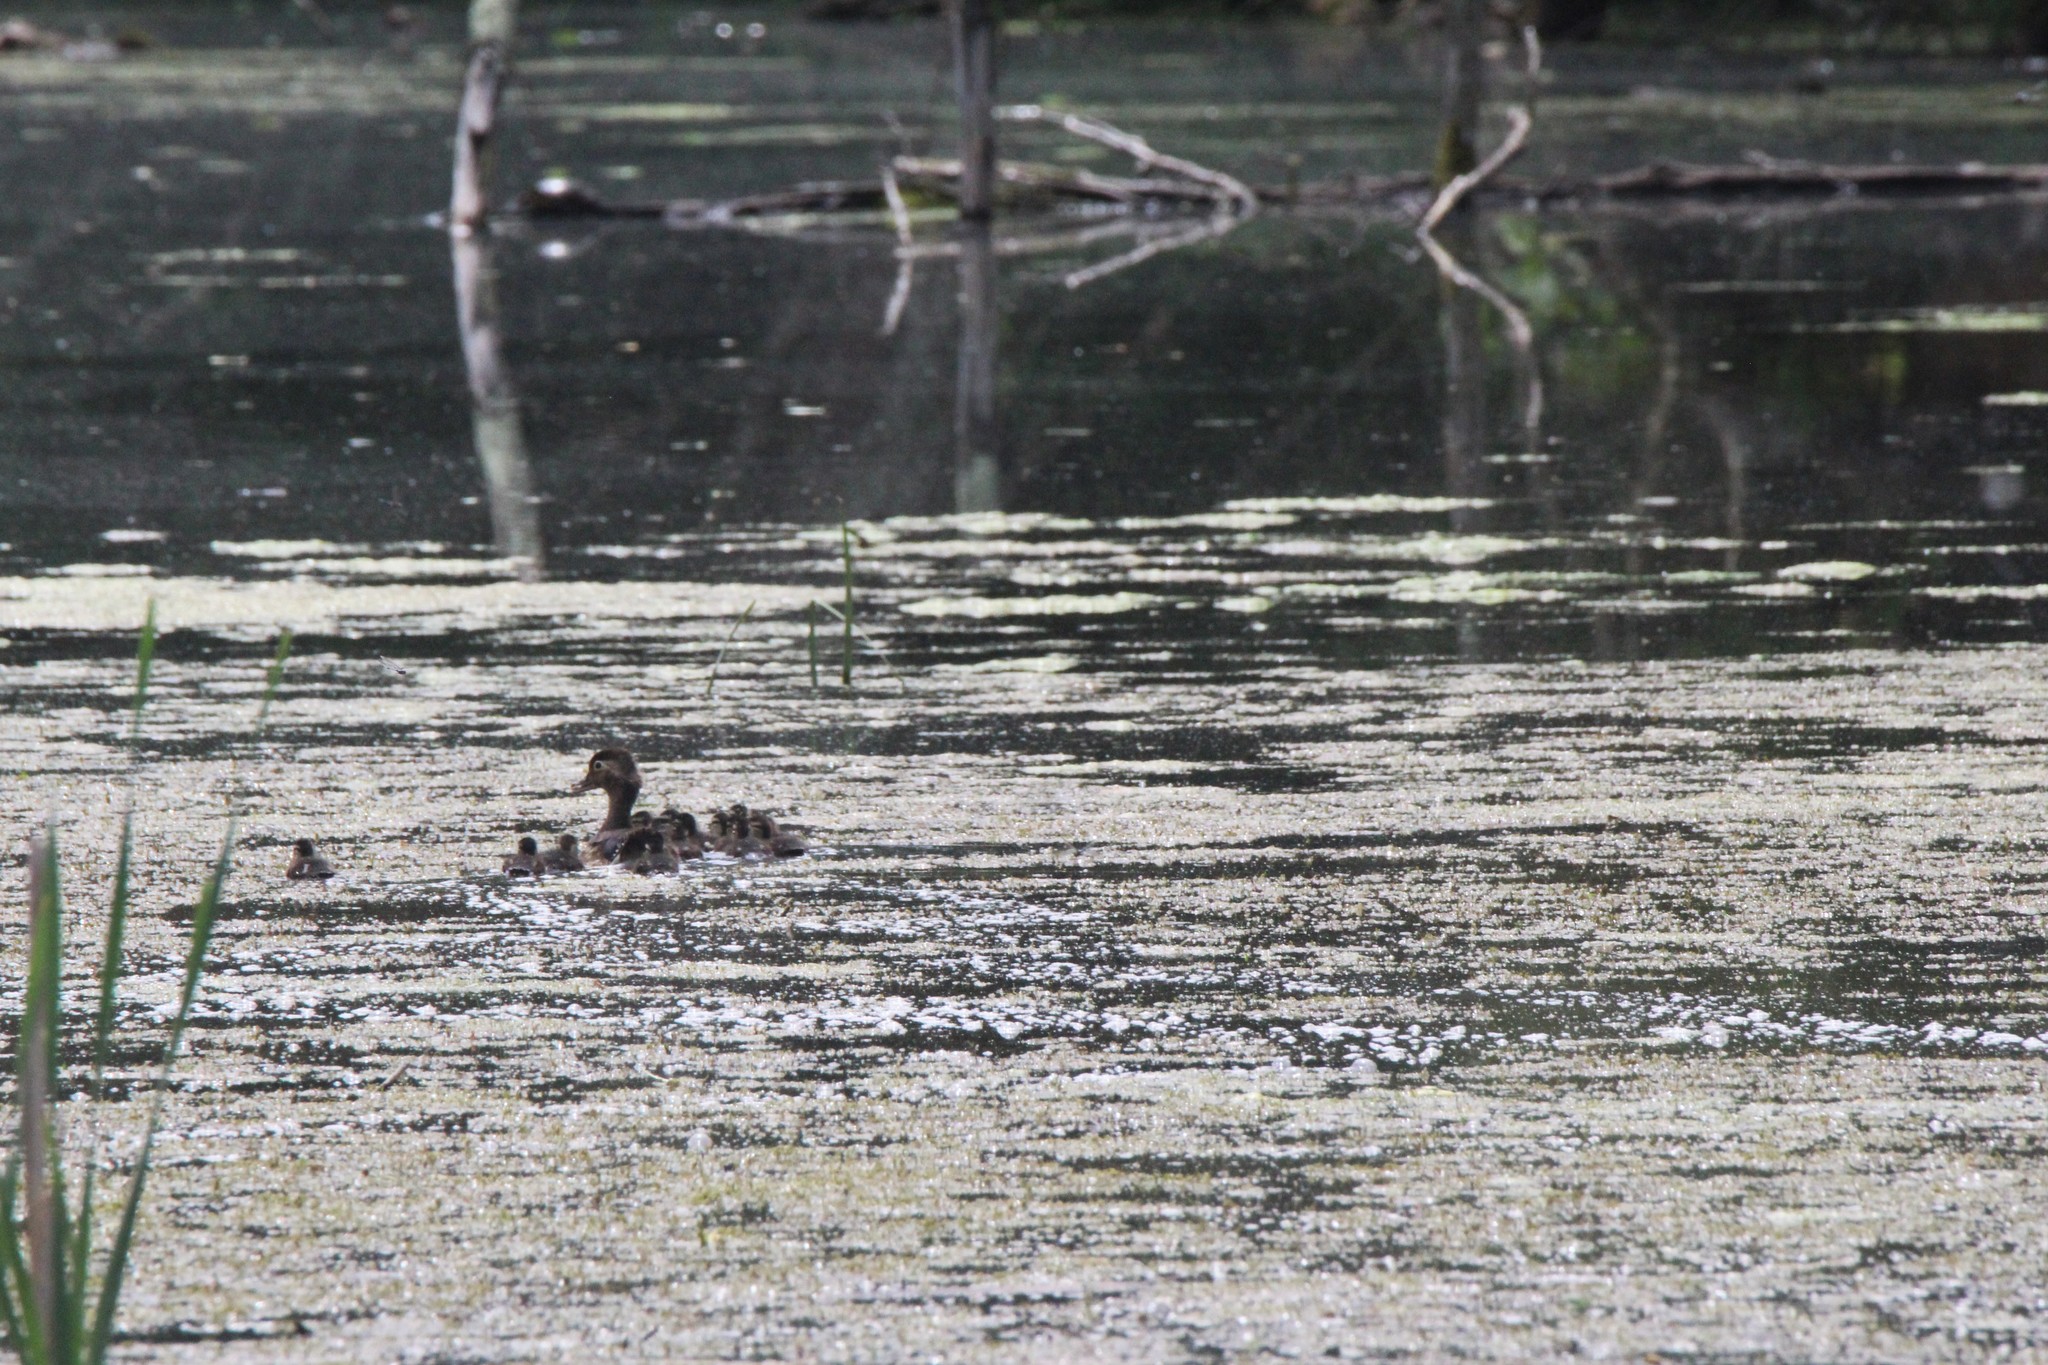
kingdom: Animalia
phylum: Chordata
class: Aves
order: Anseriformes
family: Anatidae
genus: Aix
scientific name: Aix sponsa
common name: Wood duck
